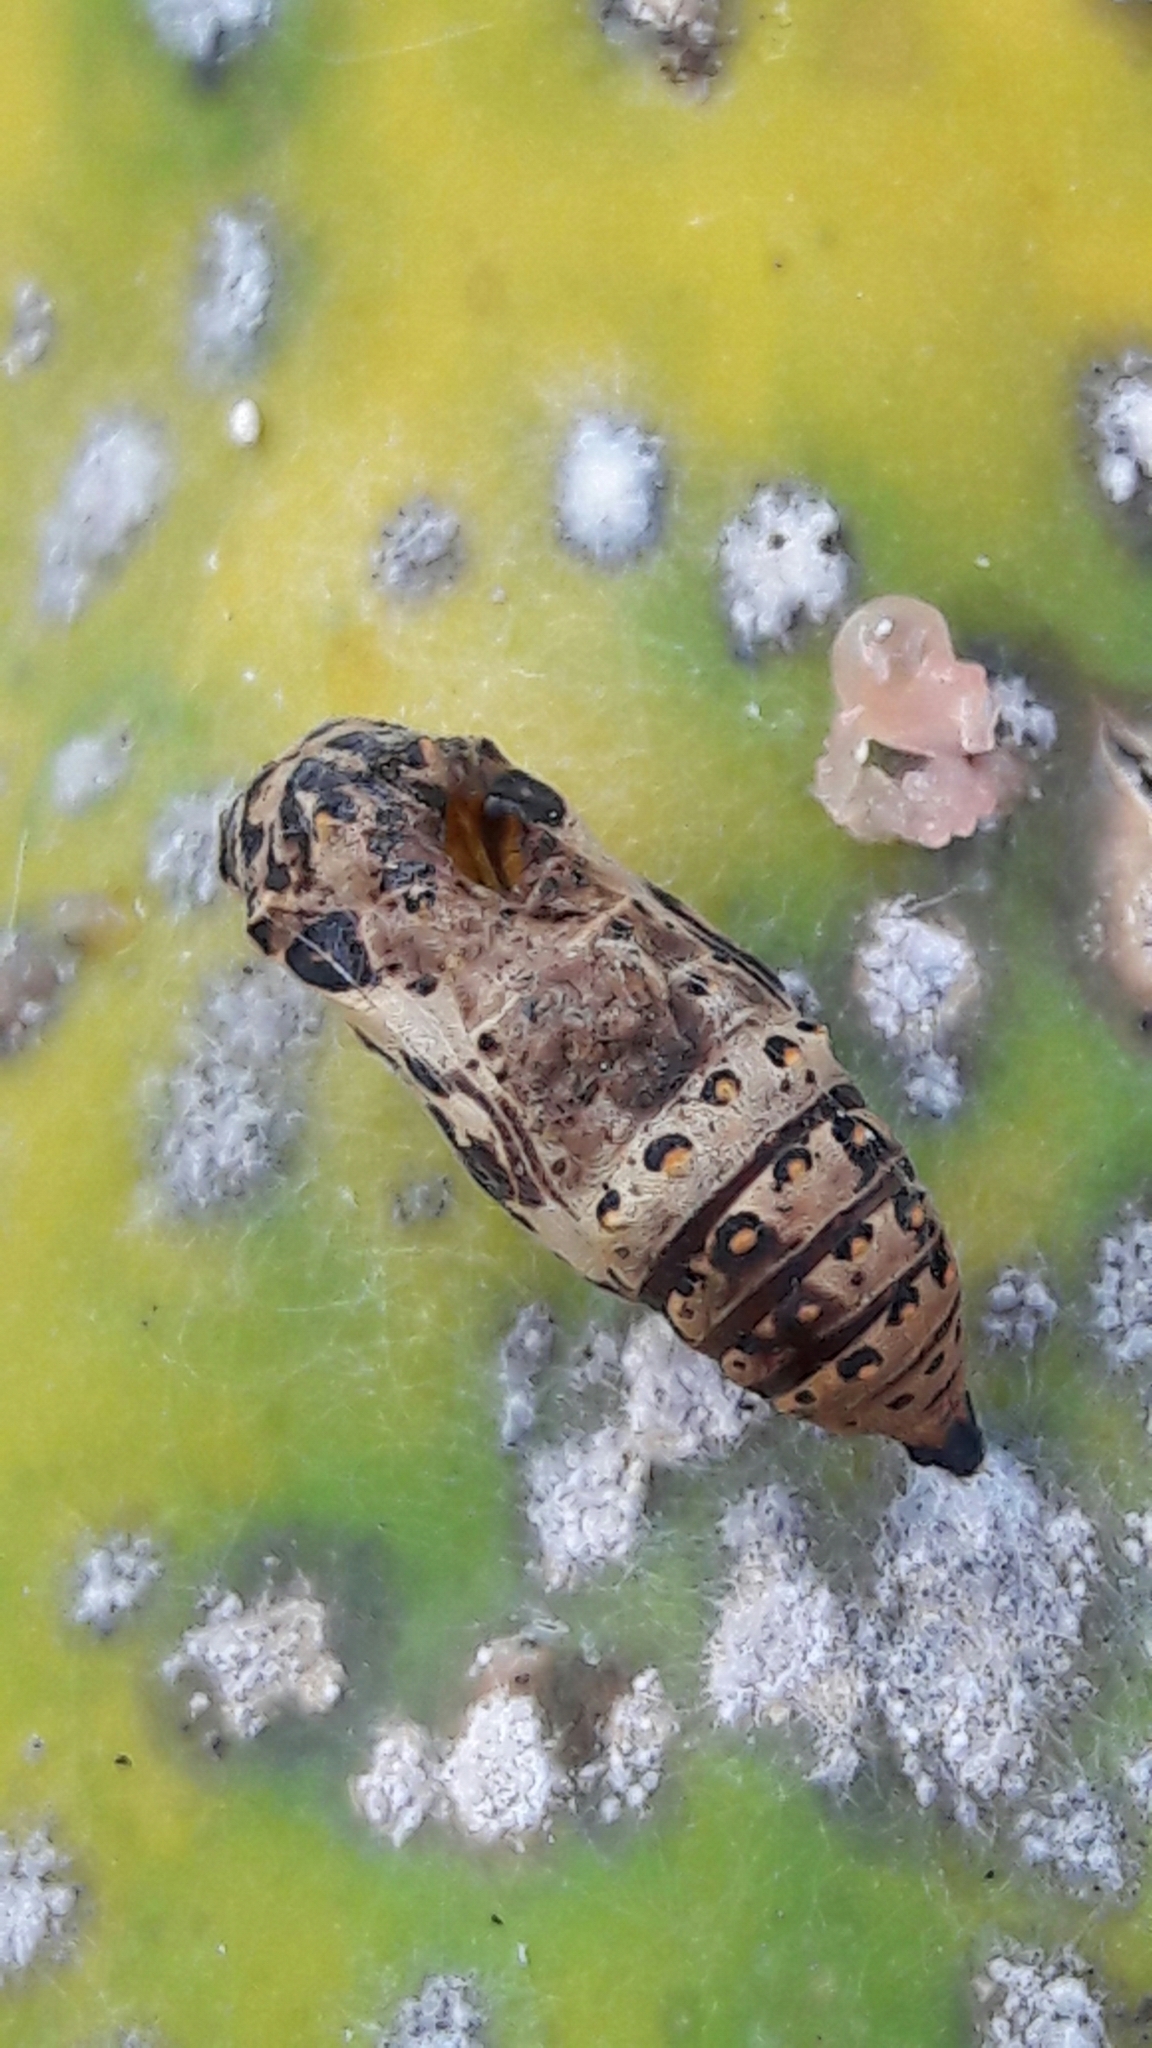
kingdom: Animalia
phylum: Arthropoda
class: Insecta
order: Lepidoptera
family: Nymphalidae
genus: Chlosyne
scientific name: Chlosyne lacinia
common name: Bordered patch
